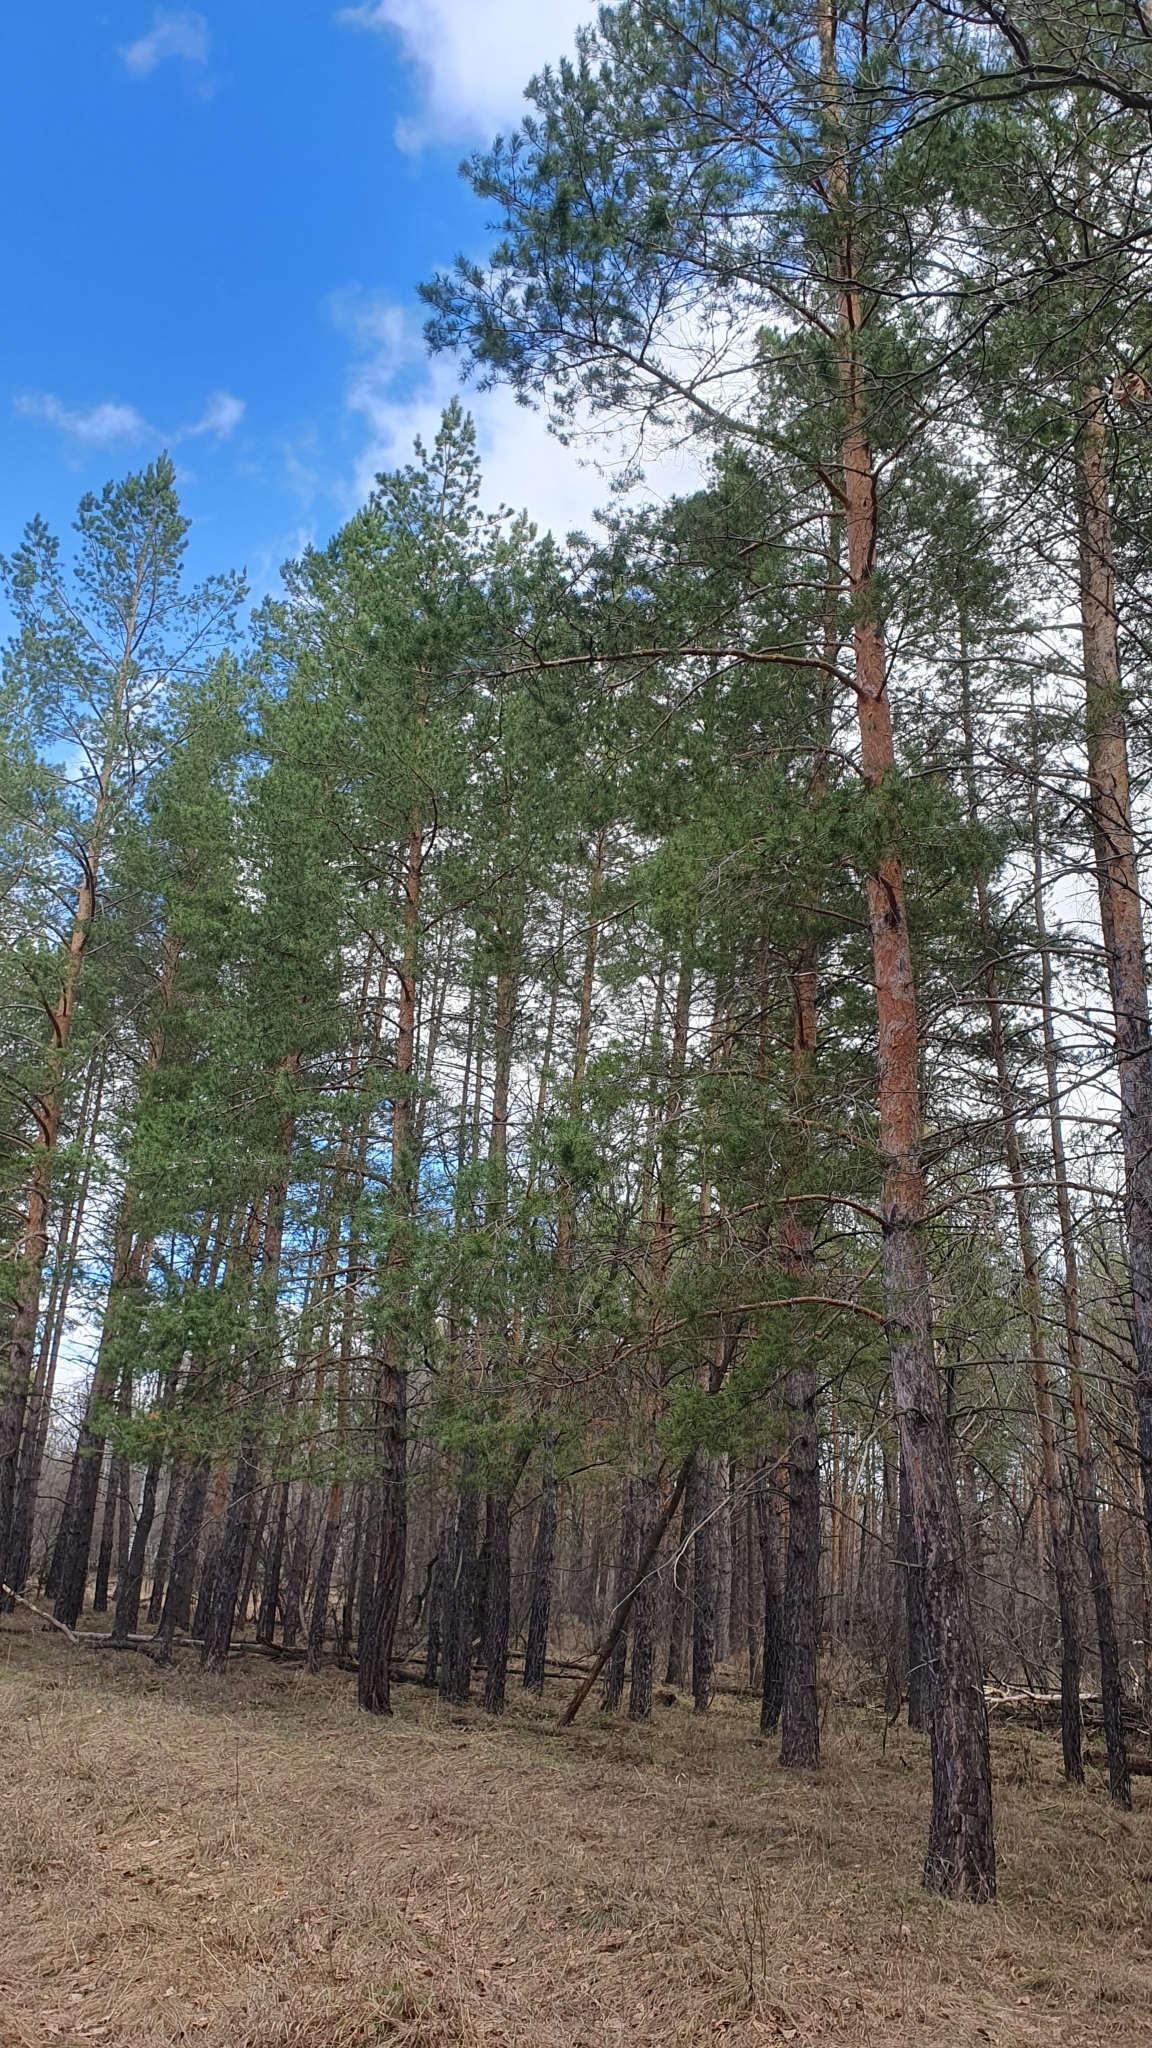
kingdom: Plantae
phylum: Tracheophyta
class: Pinopsida
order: Pinales
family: Pinaceae
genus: Pinus
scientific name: Pinus sylvestris
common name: Scots pine
